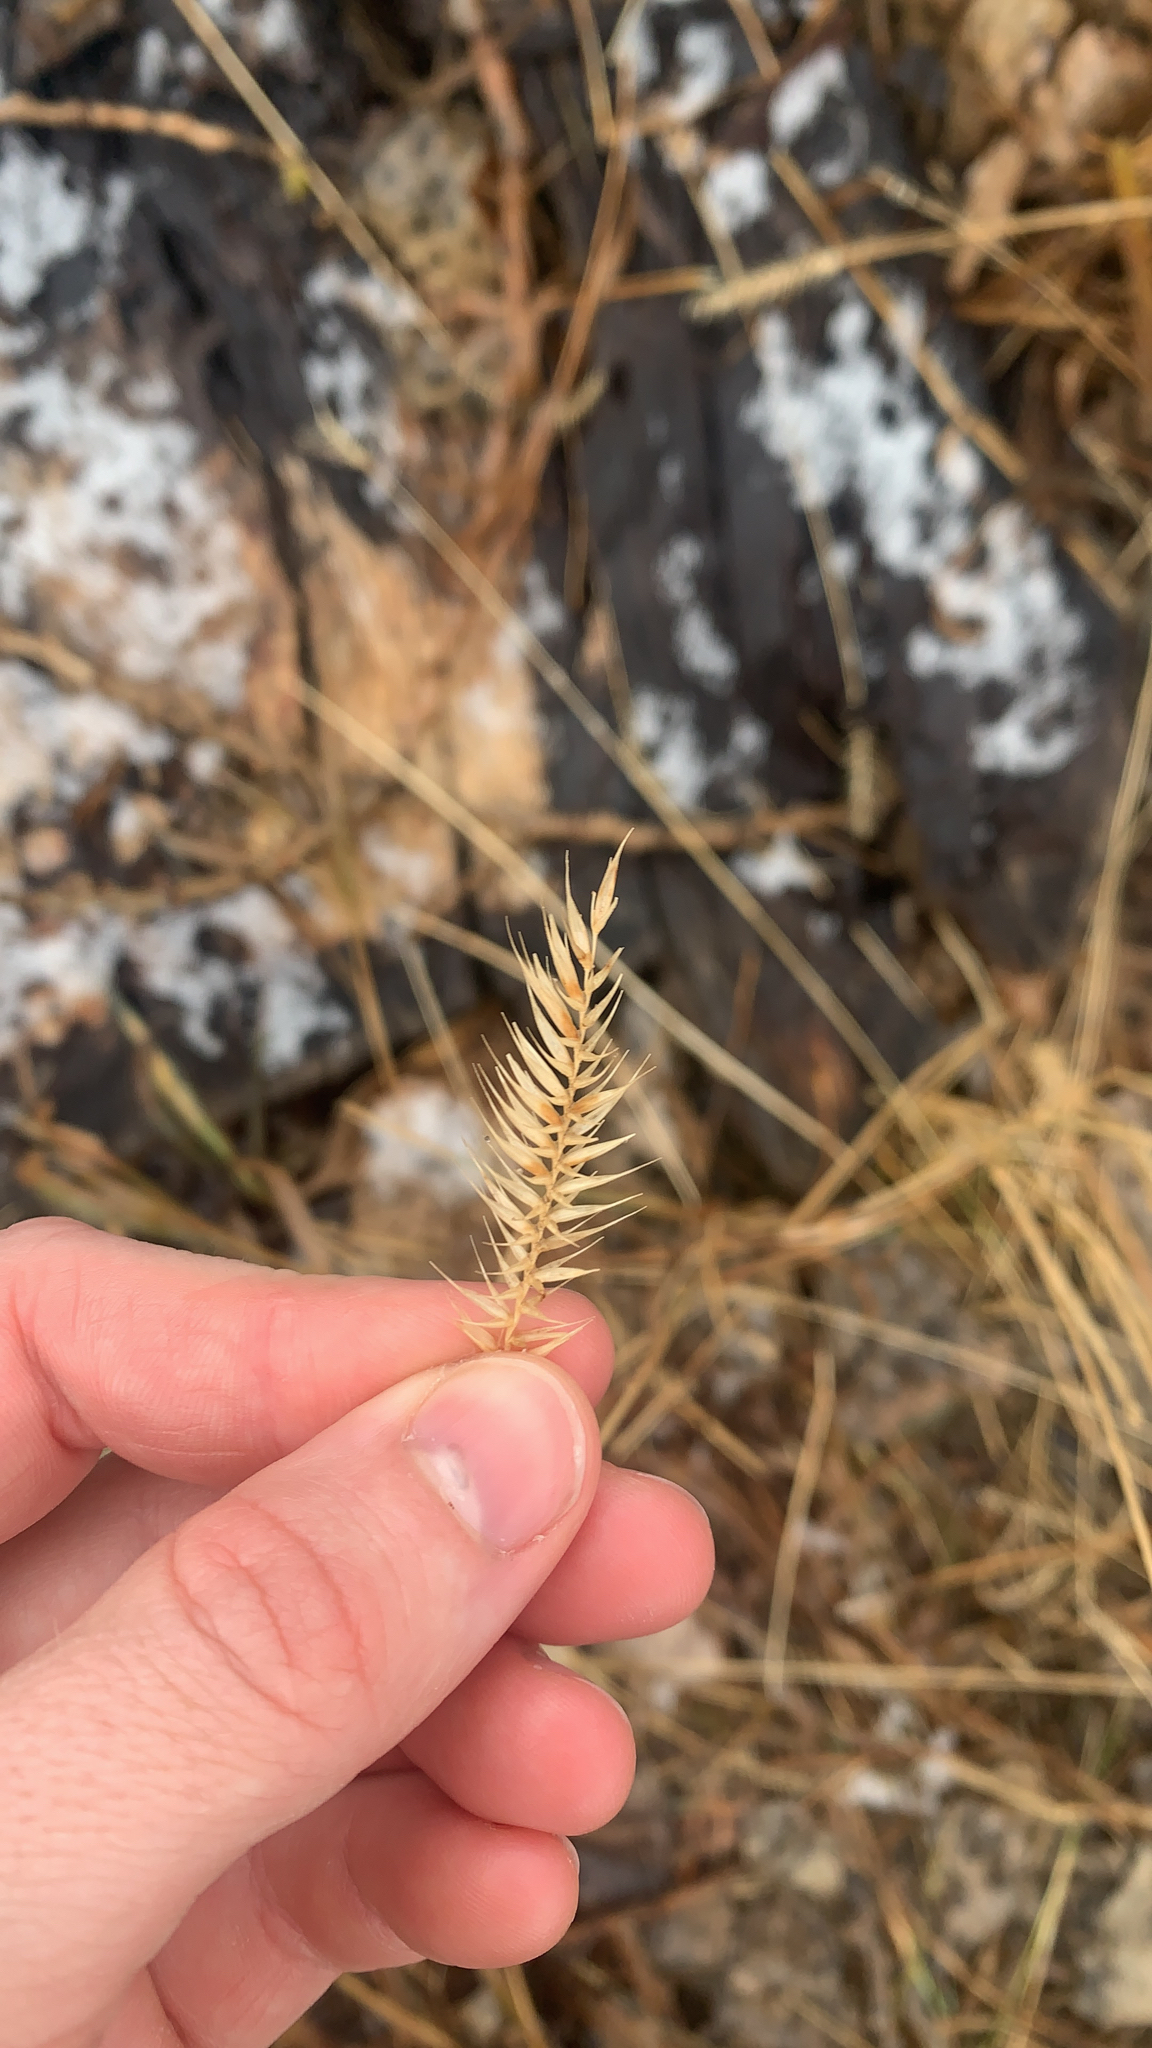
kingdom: Plantae
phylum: Tracheophyta
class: Liliopsida
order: Poales
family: Poaceae
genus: Agropyron
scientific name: Agropyron cristatum
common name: Crested wheatgrass
